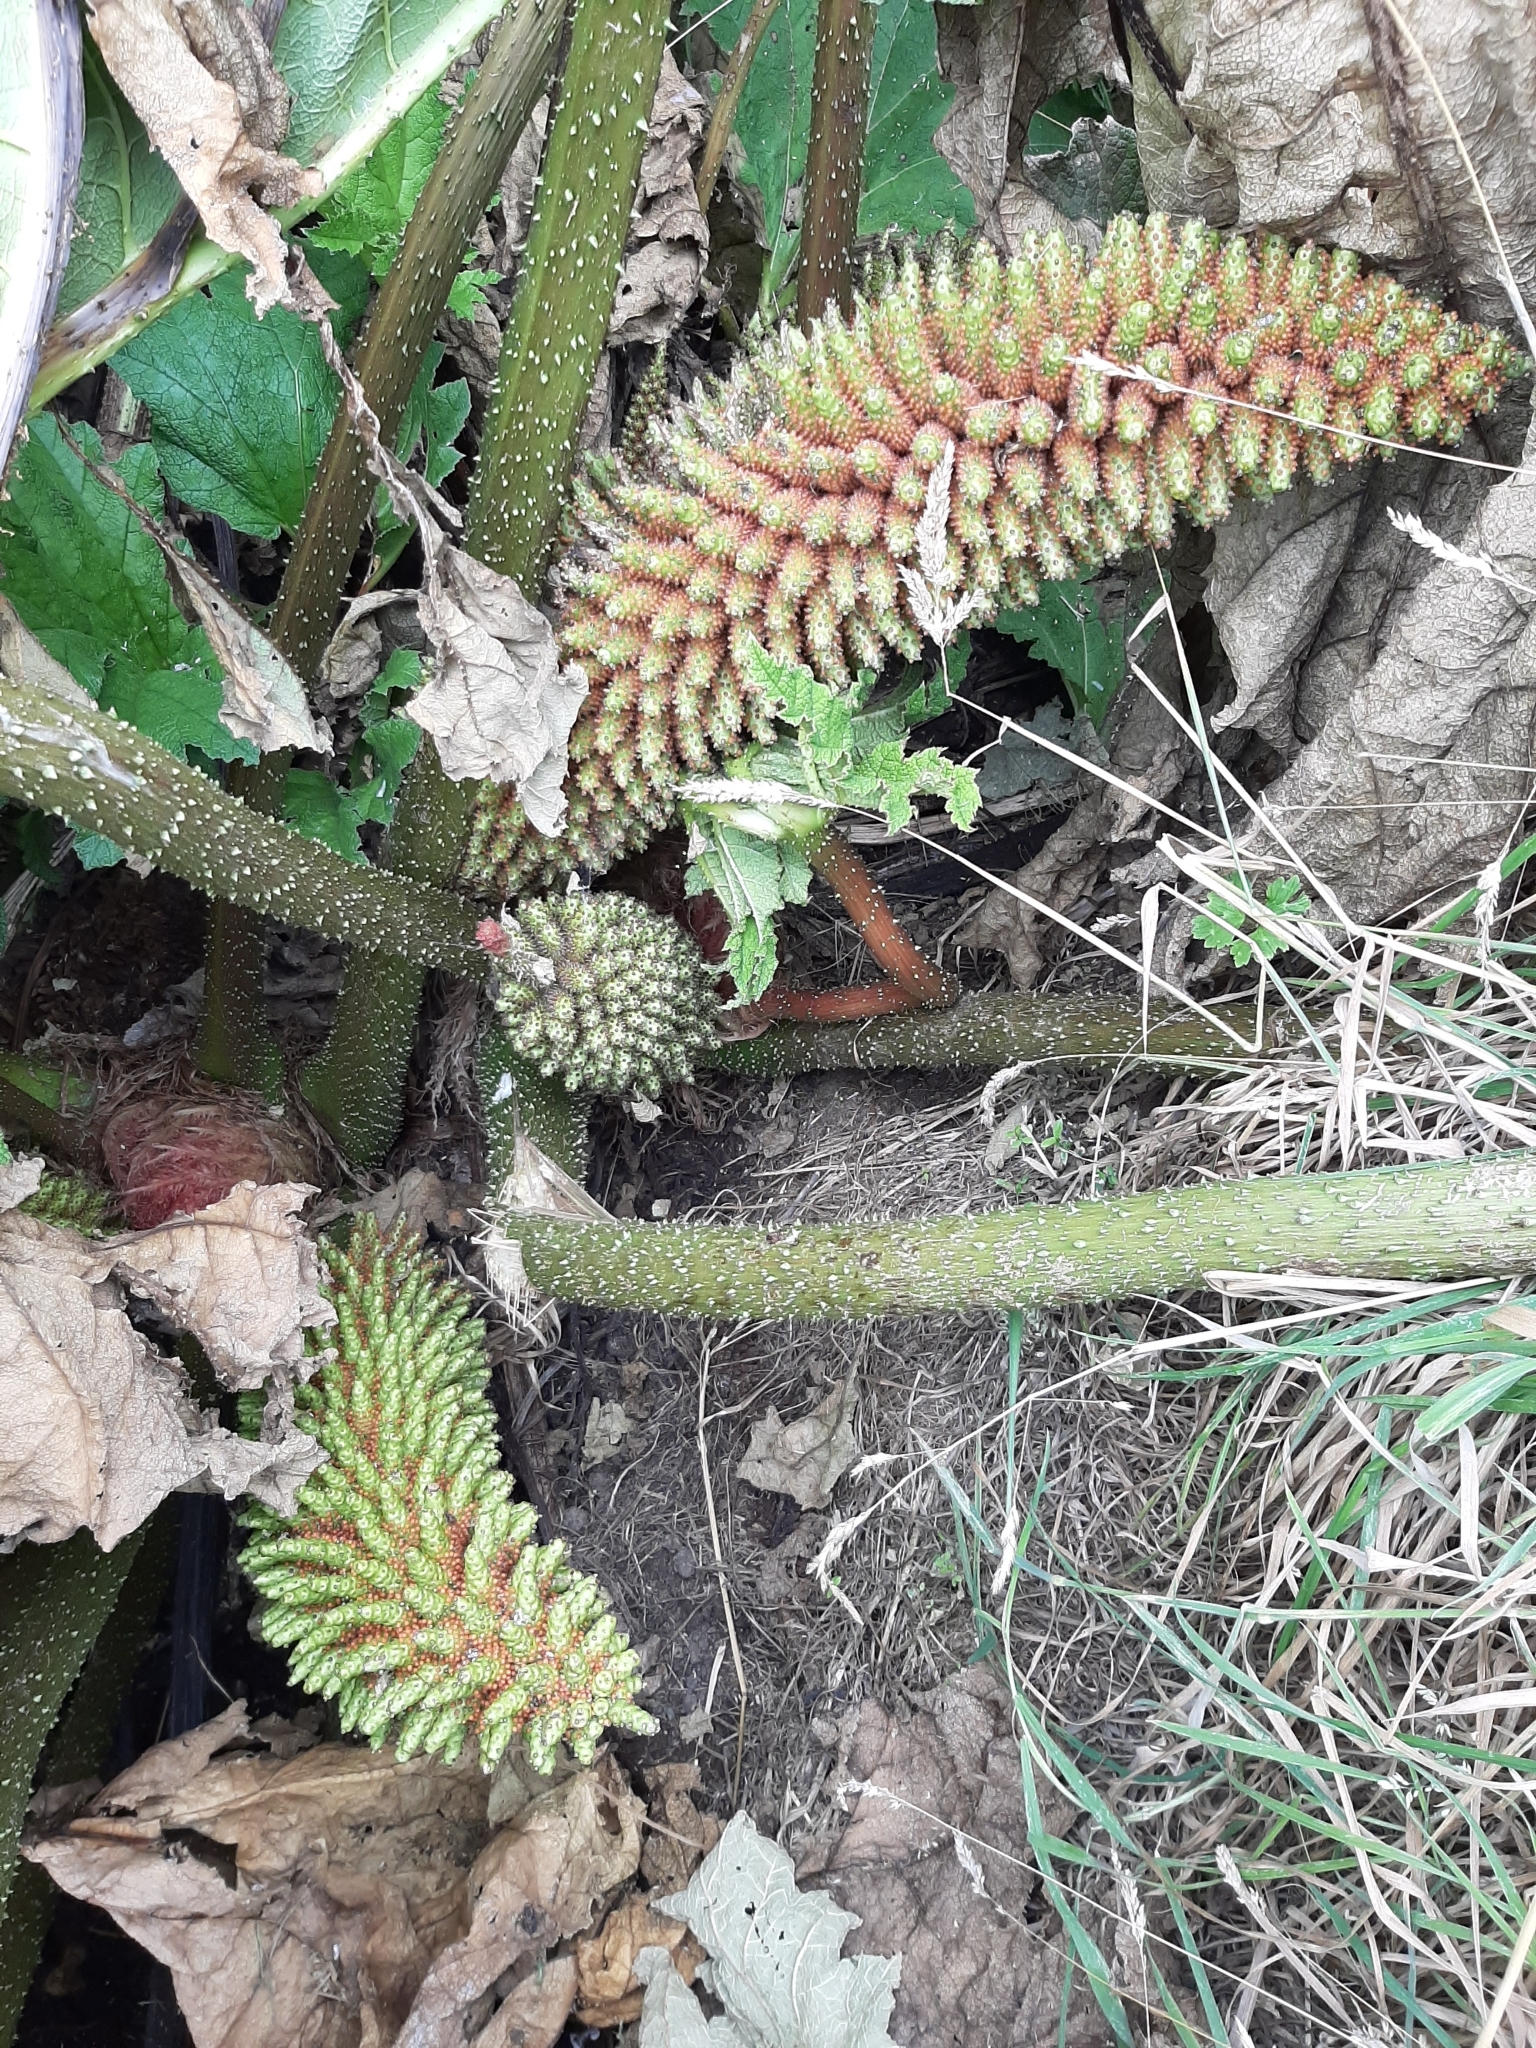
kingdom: Plantae
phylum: Tracheophyta
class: Magnoliopsida
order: Gunnerales
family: Gunneraceae
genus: Gunnera
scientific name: Gunnera tinctoria
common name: Giant-rhubarb
